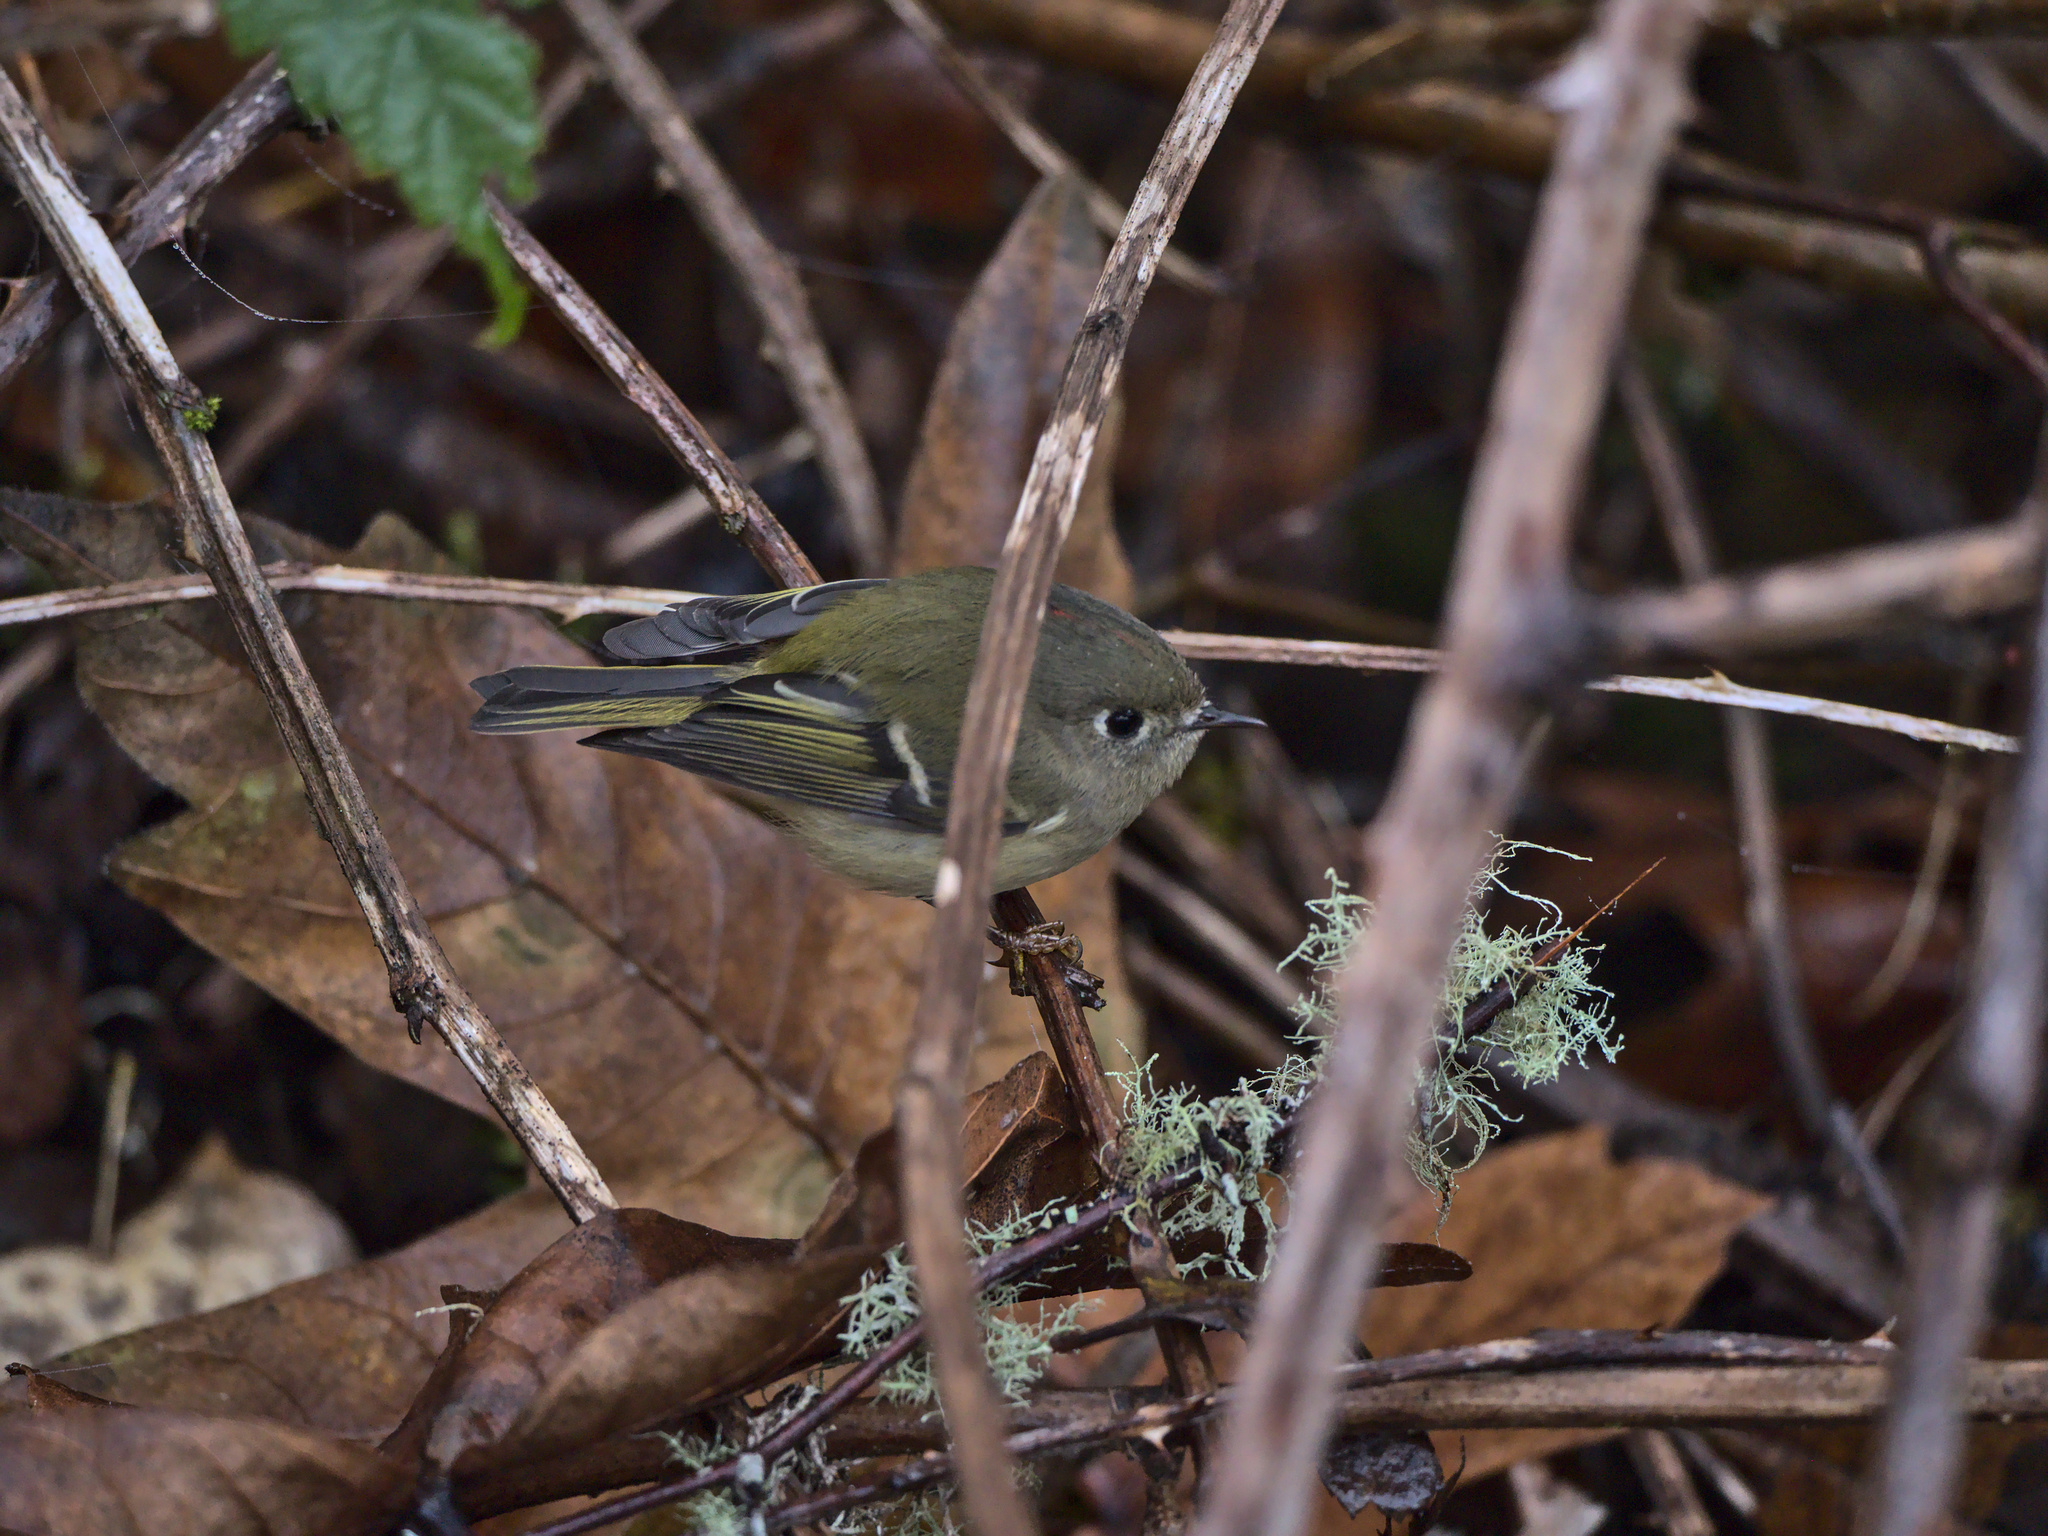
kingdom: Animalia
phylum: Chordata
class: Aves
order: Passeriformes
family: Regulidae
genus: Regulus
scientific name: Regulus calendula
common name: Ruby-crowned kinglet
